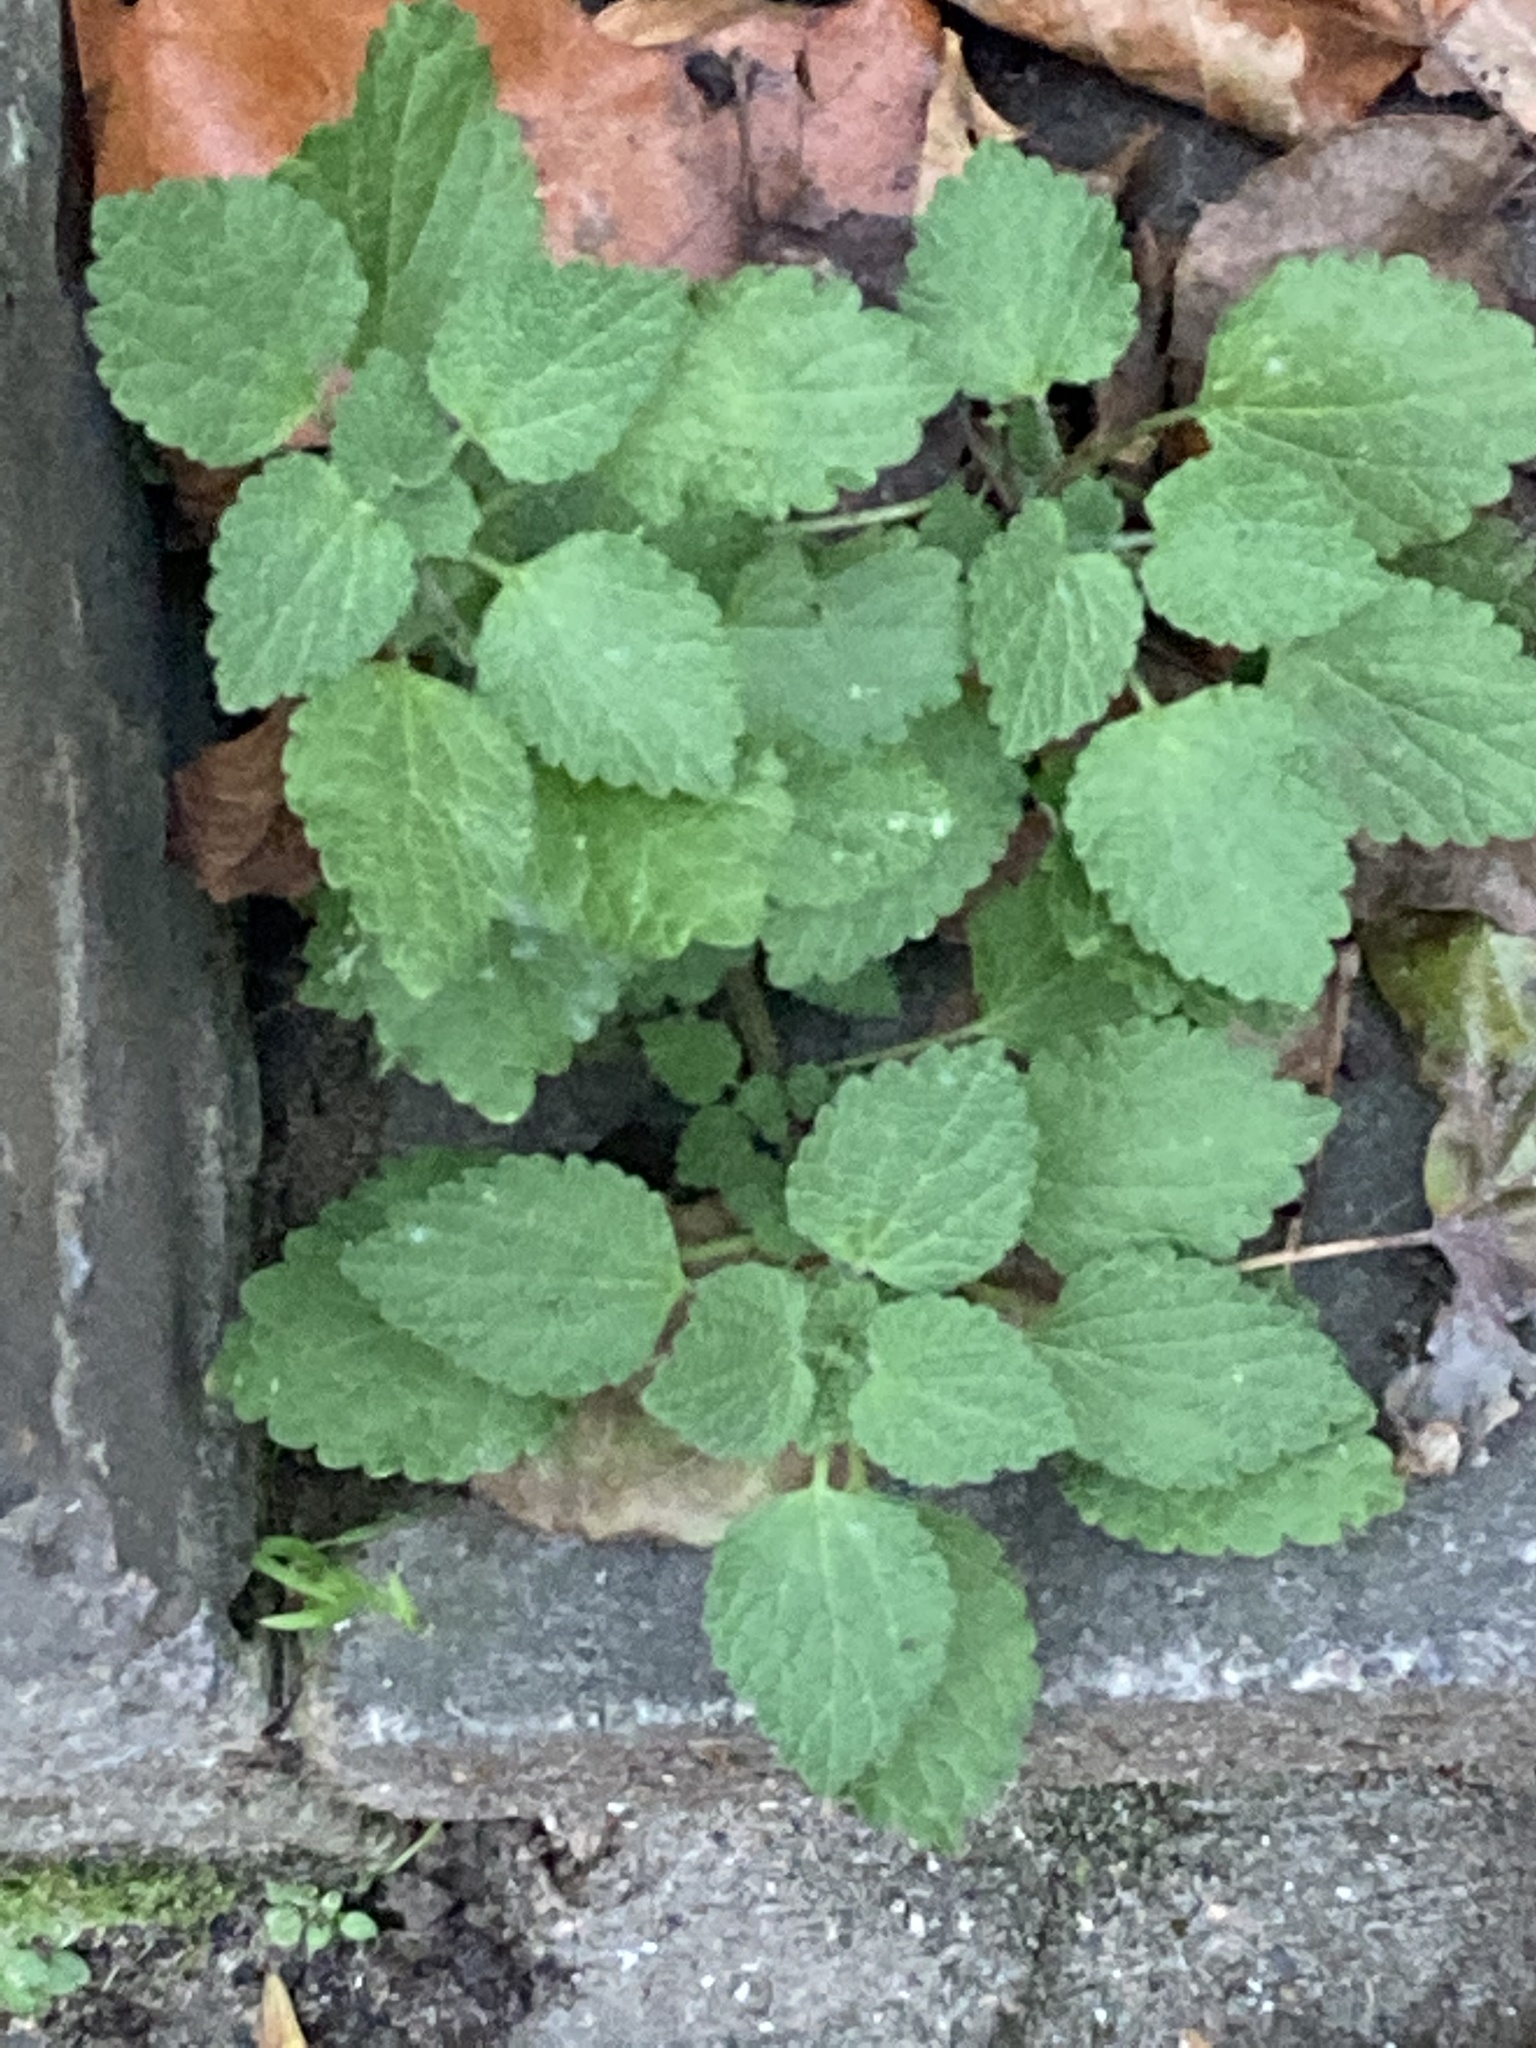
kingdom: Plantae
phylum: Tracheophyta
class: Magnoliopsida
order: Lamiales
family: Lamiaceae
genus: Ballota
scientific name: Ballota nigra
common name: Black horehound
